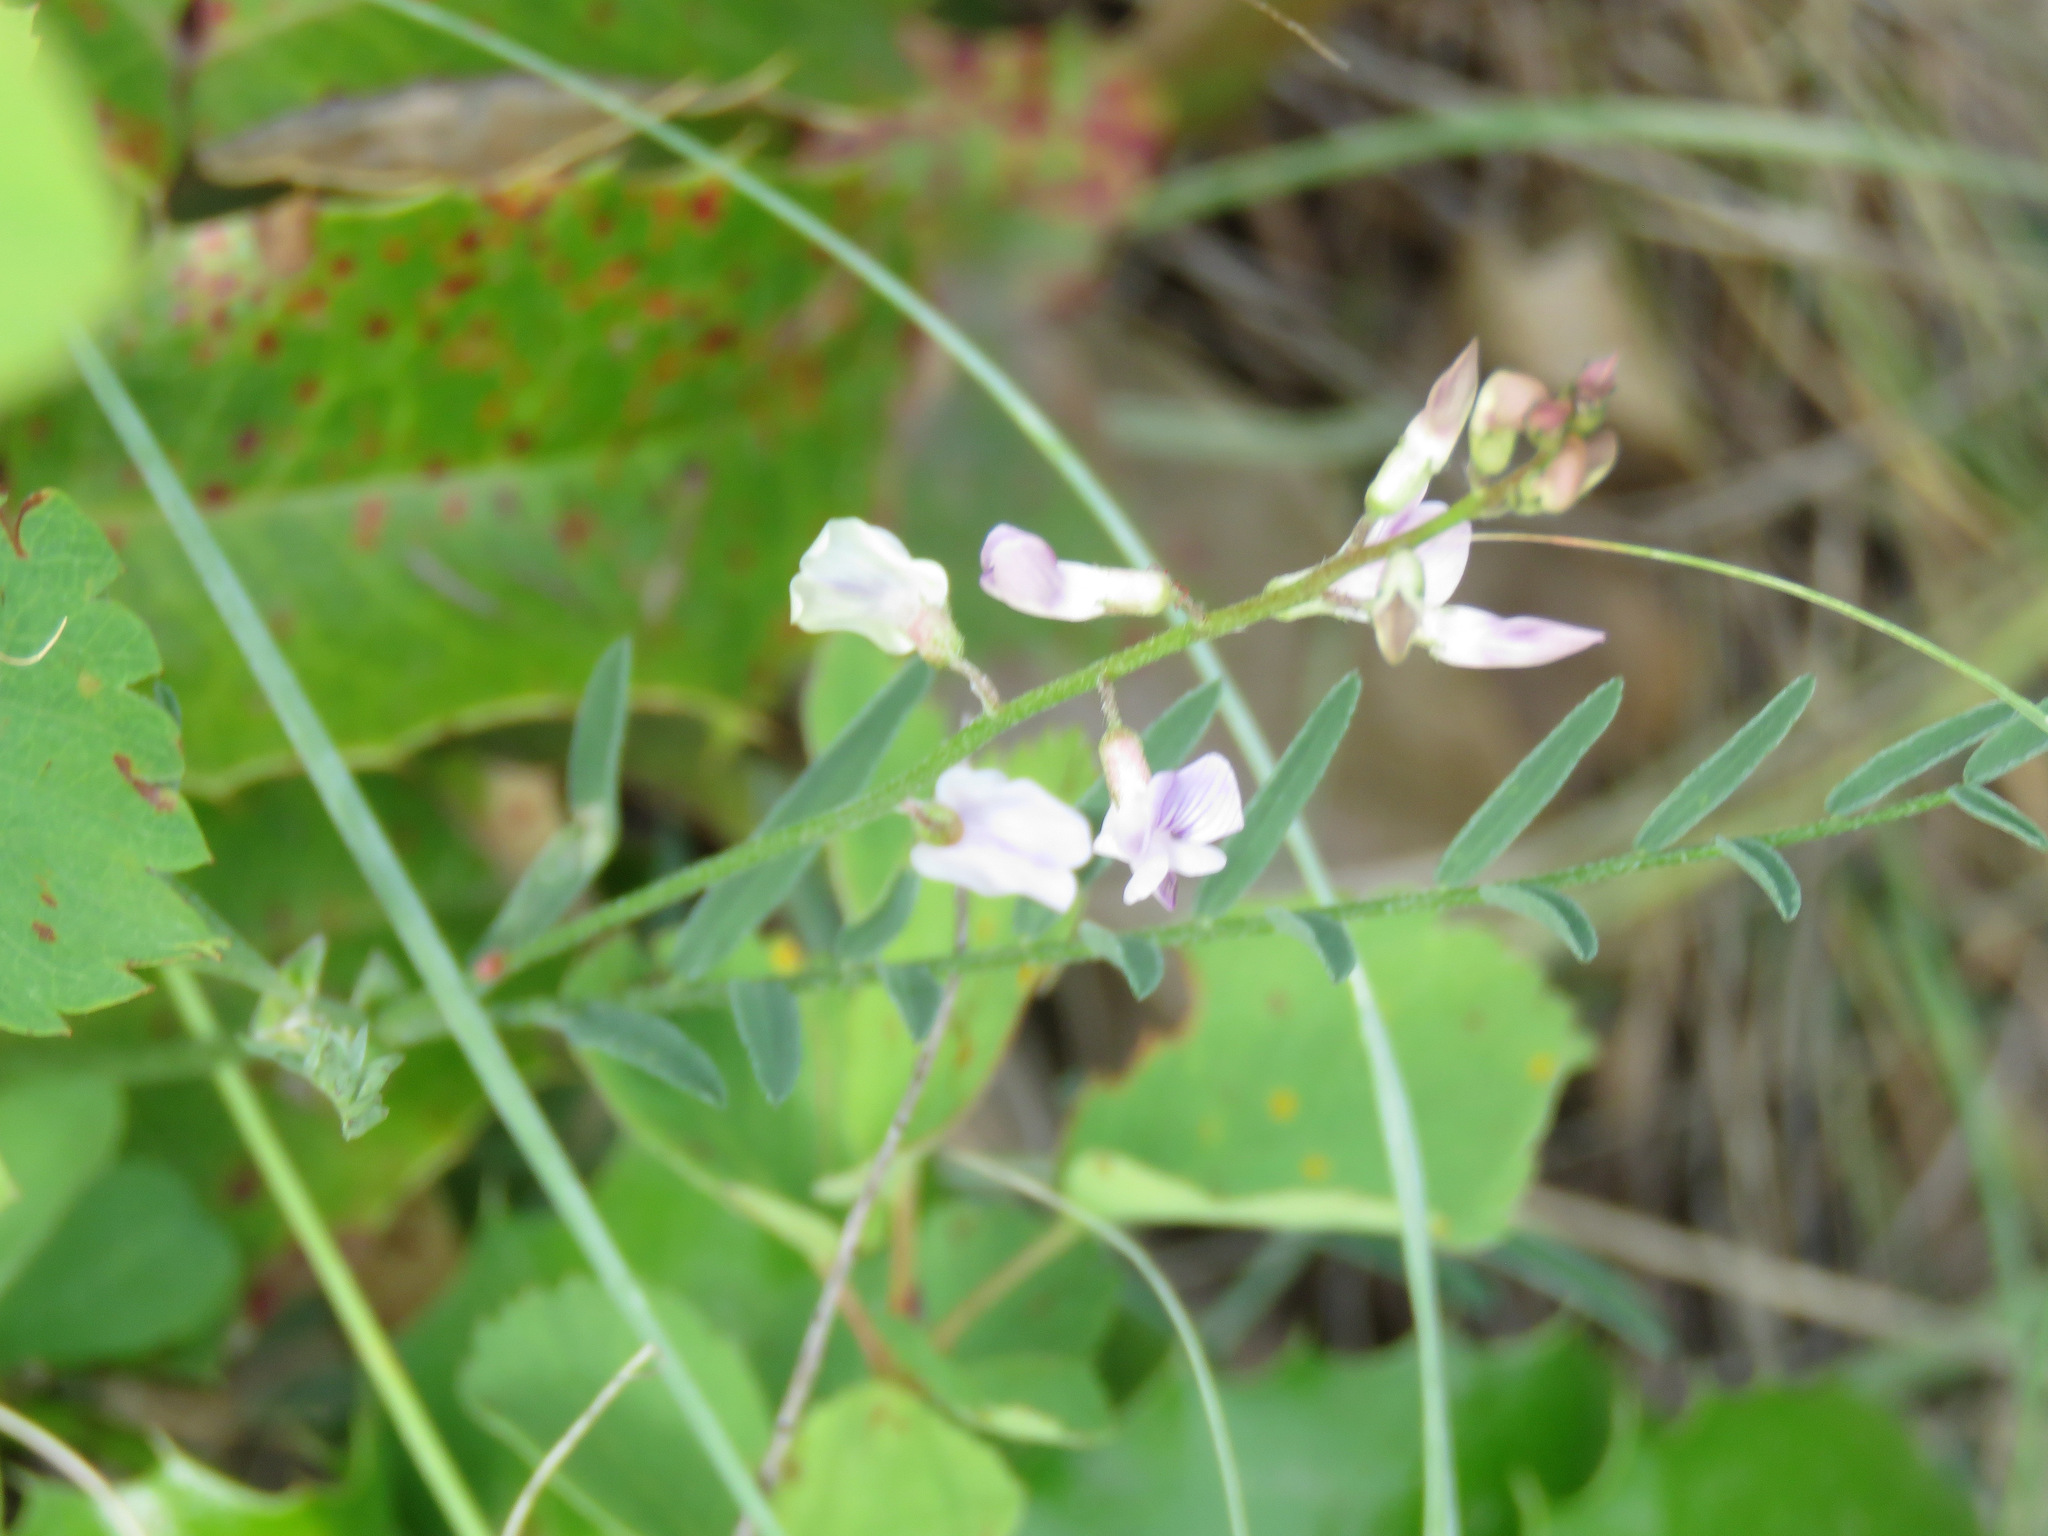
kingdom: Plantae
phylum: Tracheophyta
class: Magnoliopsida
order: Fabales
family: Fabaceae
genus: Astragalus
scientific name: Astragalus miser
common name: Timber milkvetch
